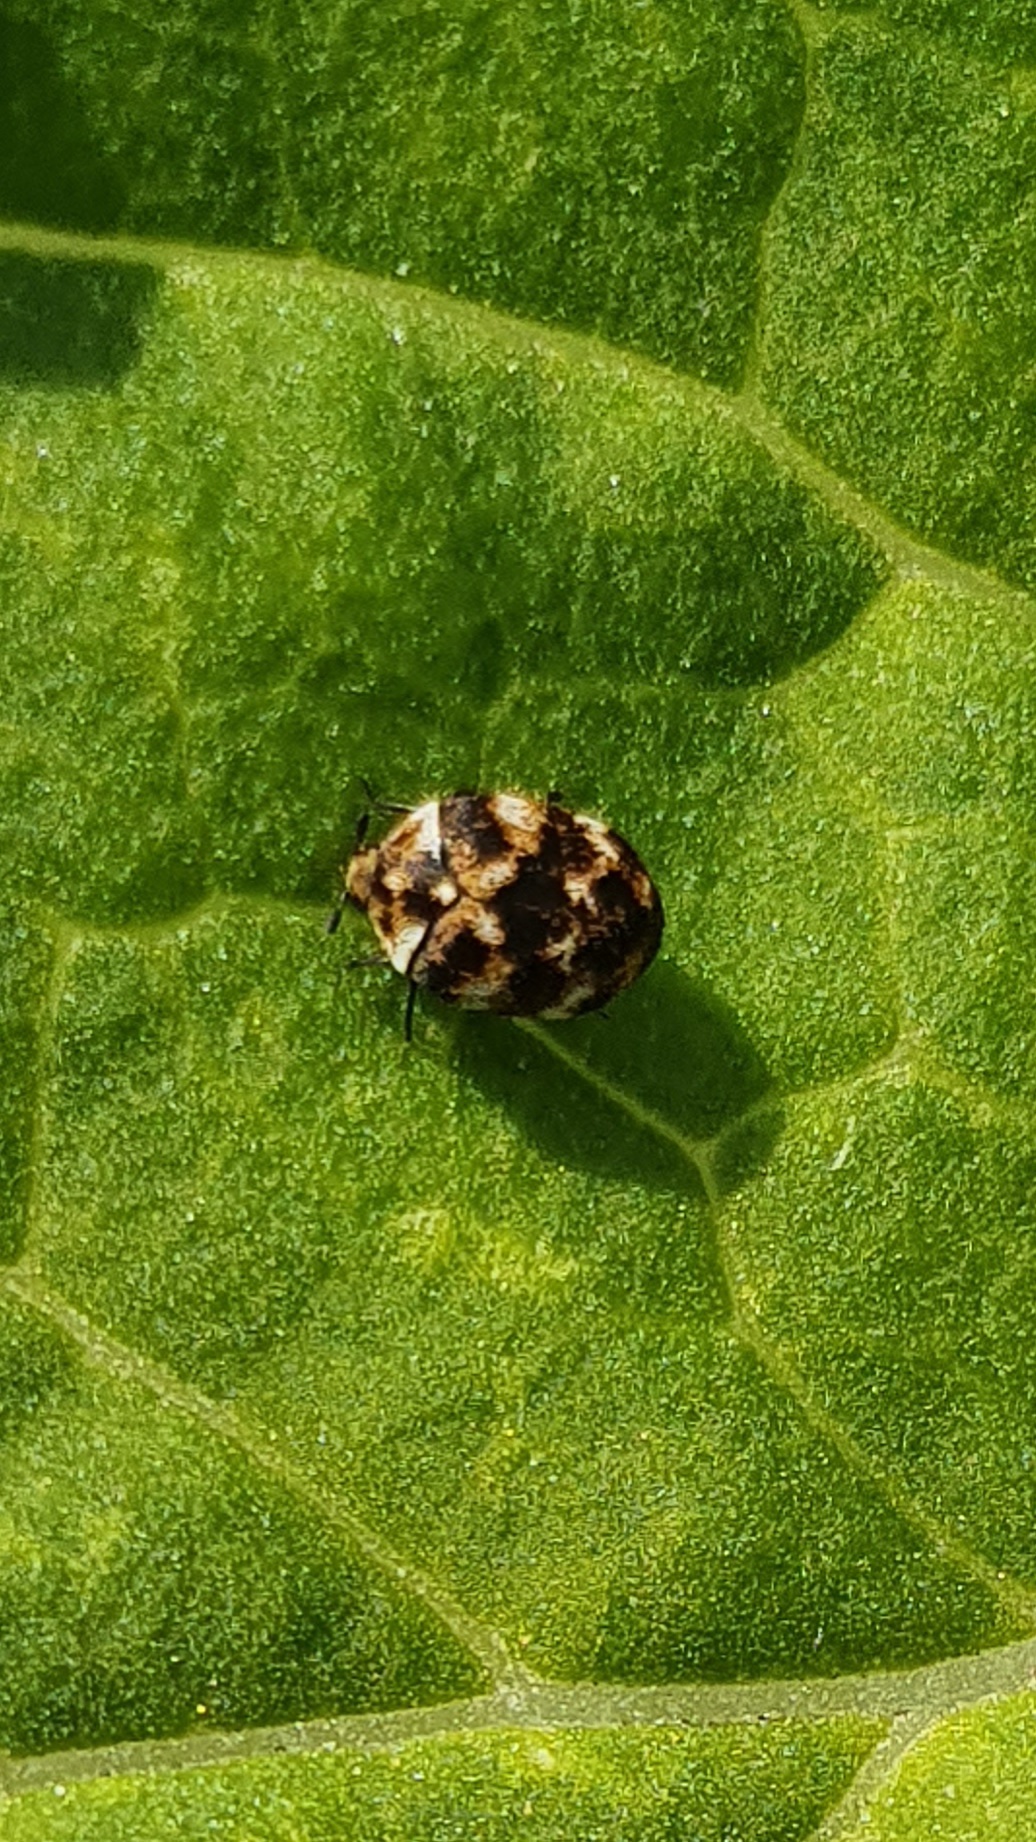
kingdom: Animalia
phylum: Arthropoda
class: Insecta
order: Coleoptera
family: Dermestidae
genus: Anthrenus
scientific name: Anthrenus verbasci
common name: Varied carpet beetle
